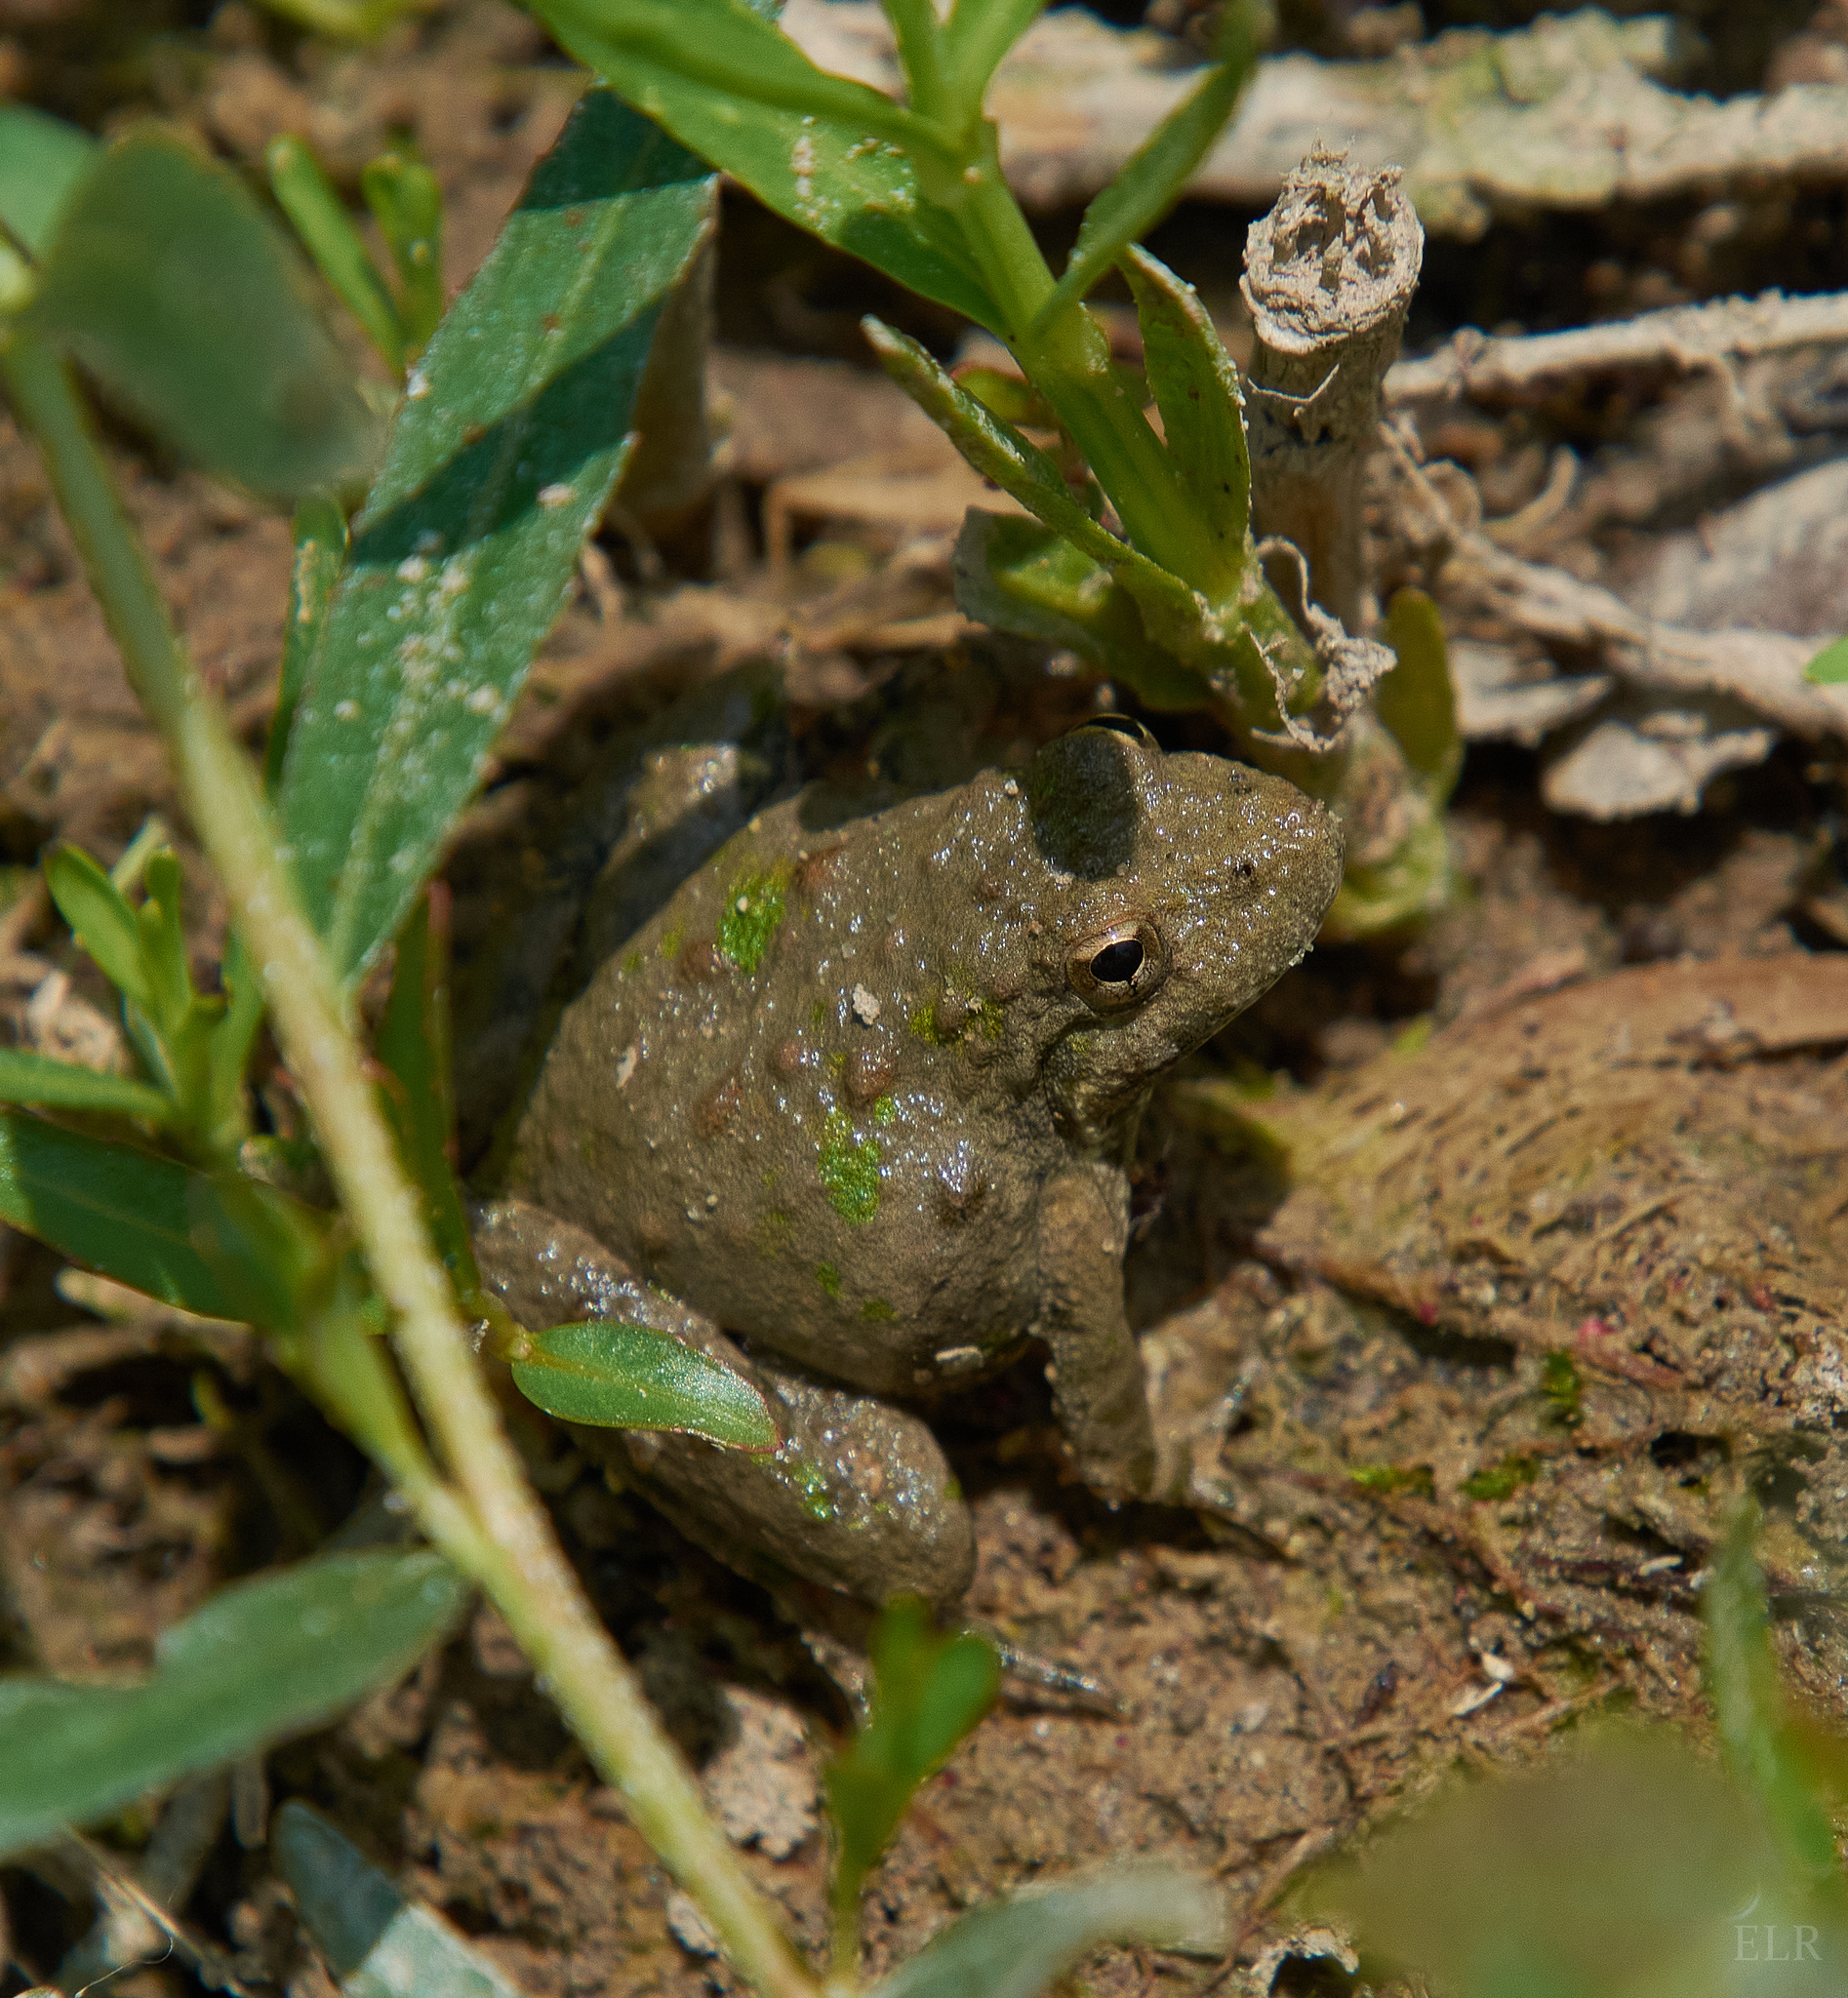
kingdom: Animalia
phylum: Chordata
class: Amphibia
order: Anura
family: Hylidae
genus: Acris
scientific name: Acris blanchardi
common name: Blanchard's cricket frog
